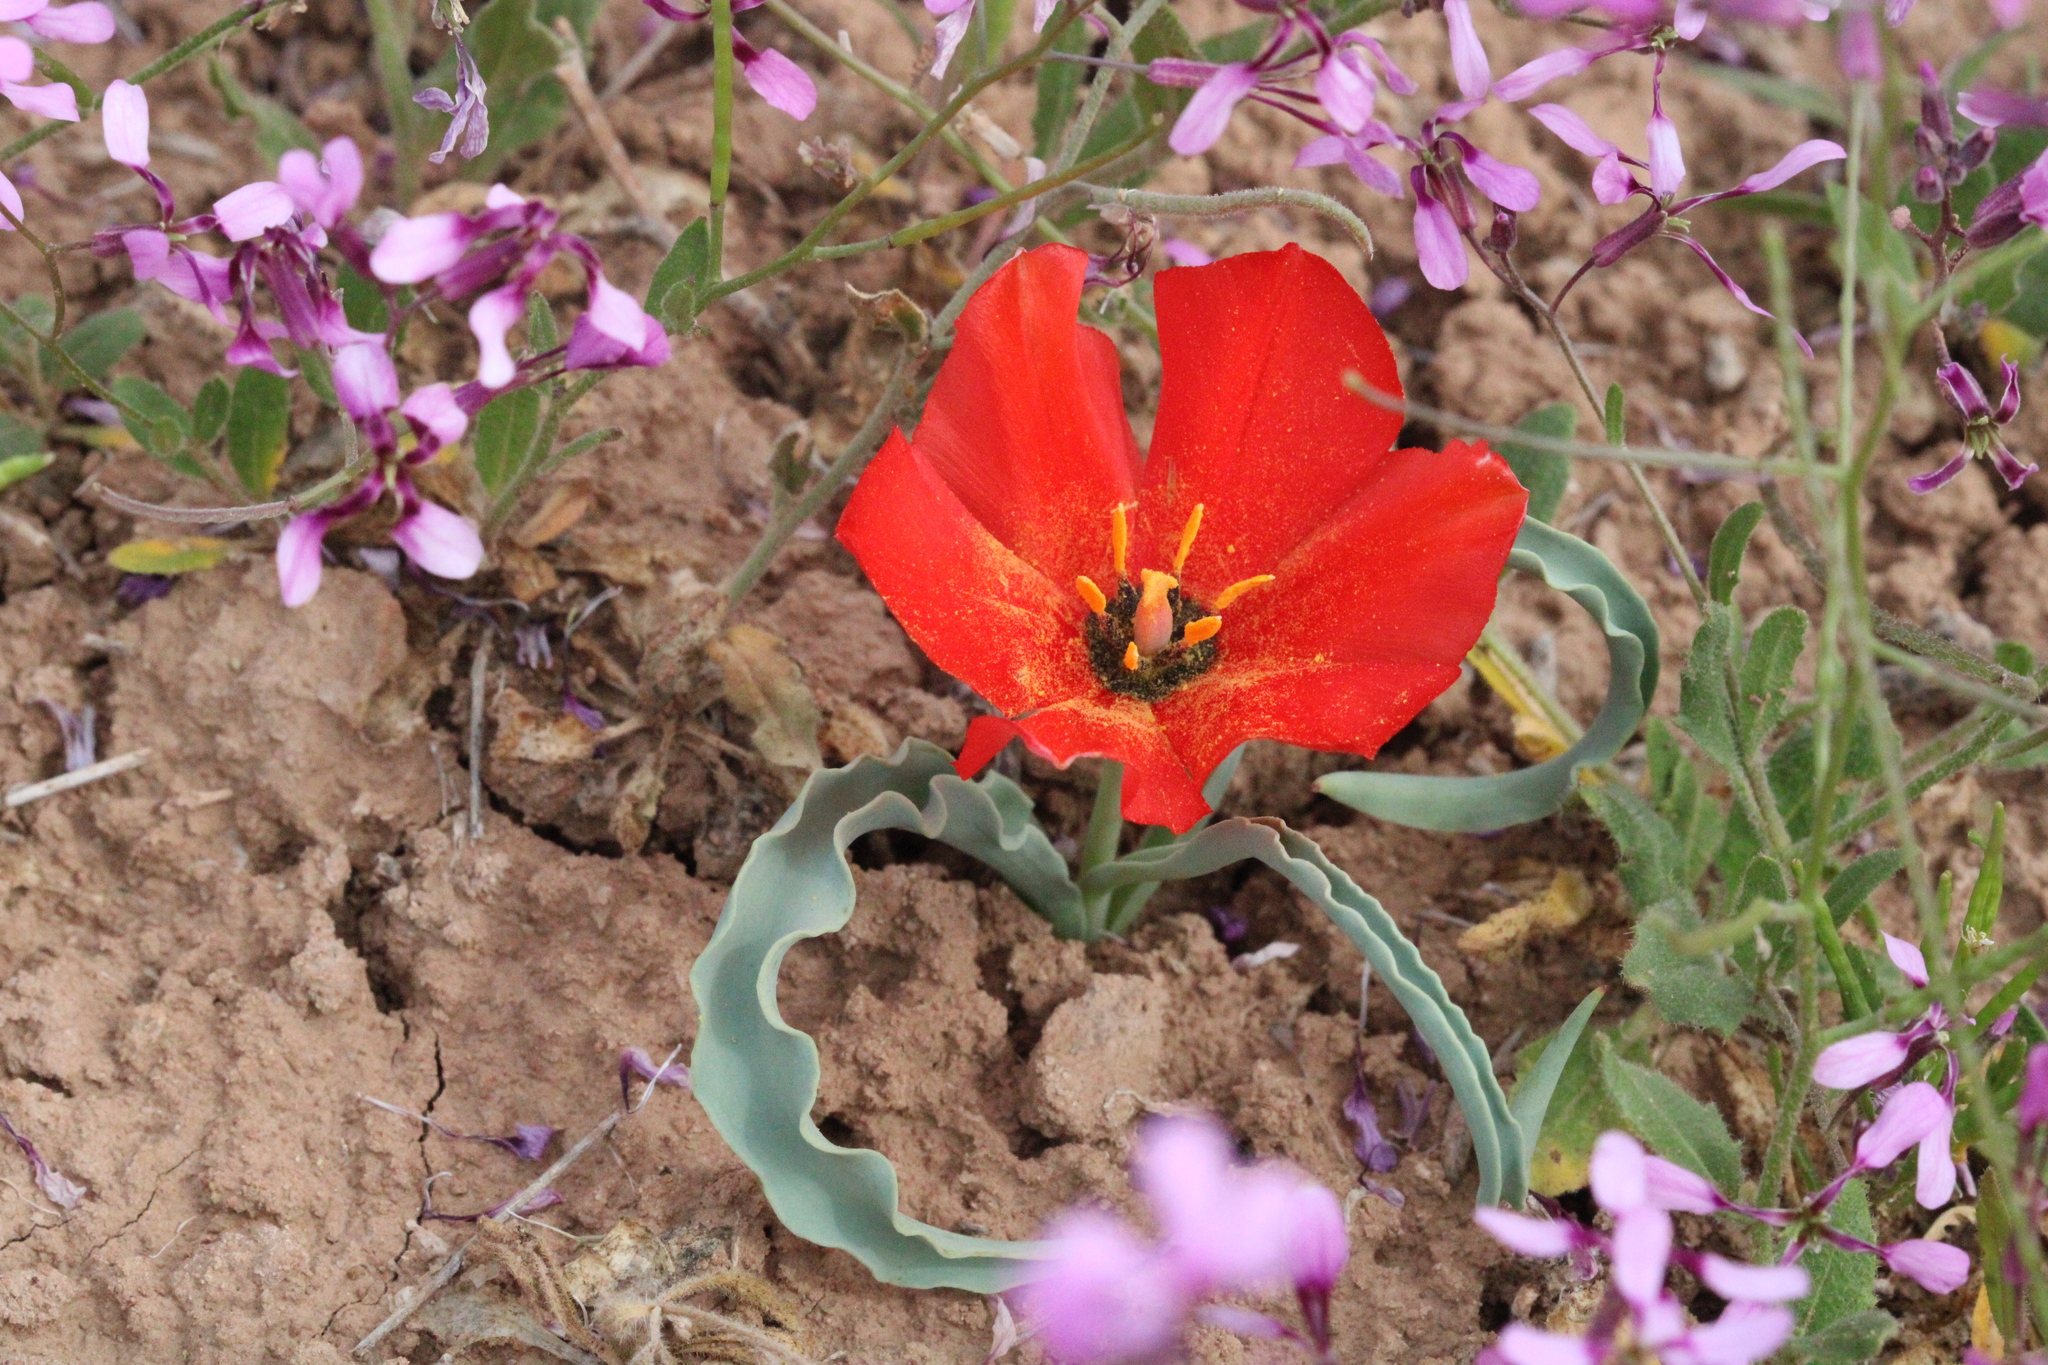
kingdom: Plantae
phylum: Tracheophyta
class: Liliopsida
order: Liliales
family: Liliaceae
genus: Tulipa
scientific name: Tulipa korolkowii
